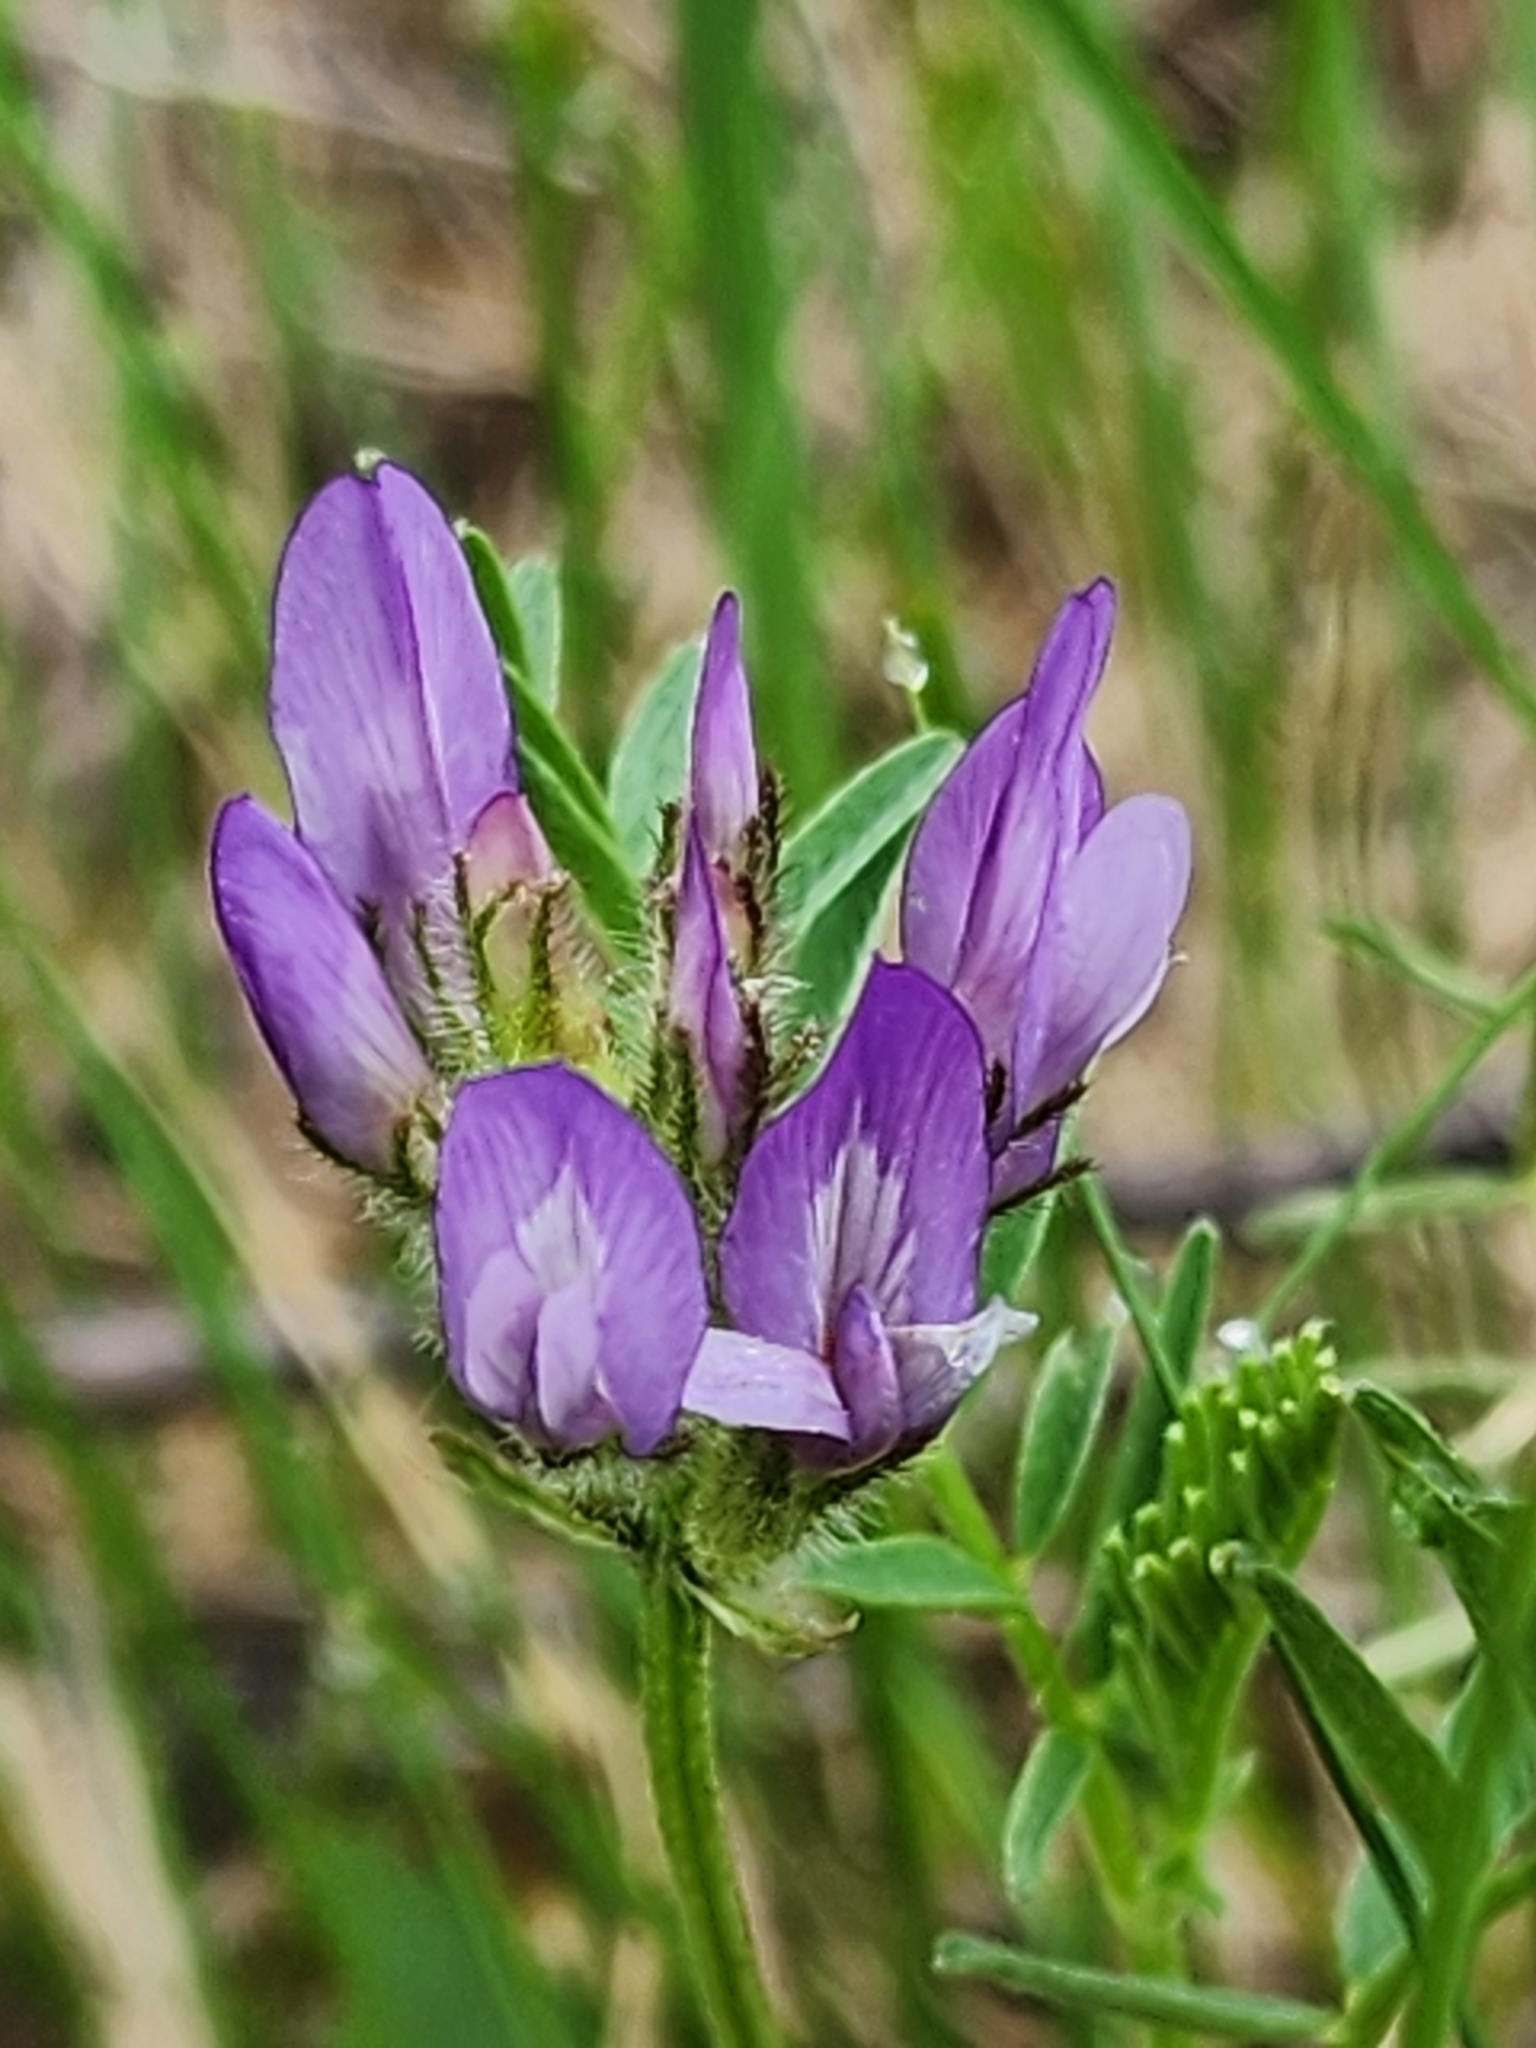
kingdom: Plantae
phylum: Tracheophyta
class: Magnoliopsida
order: Fabales
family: Fabaceae
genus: Astragalus
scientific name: Astragalus agrestis
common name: Field milk-vetch
